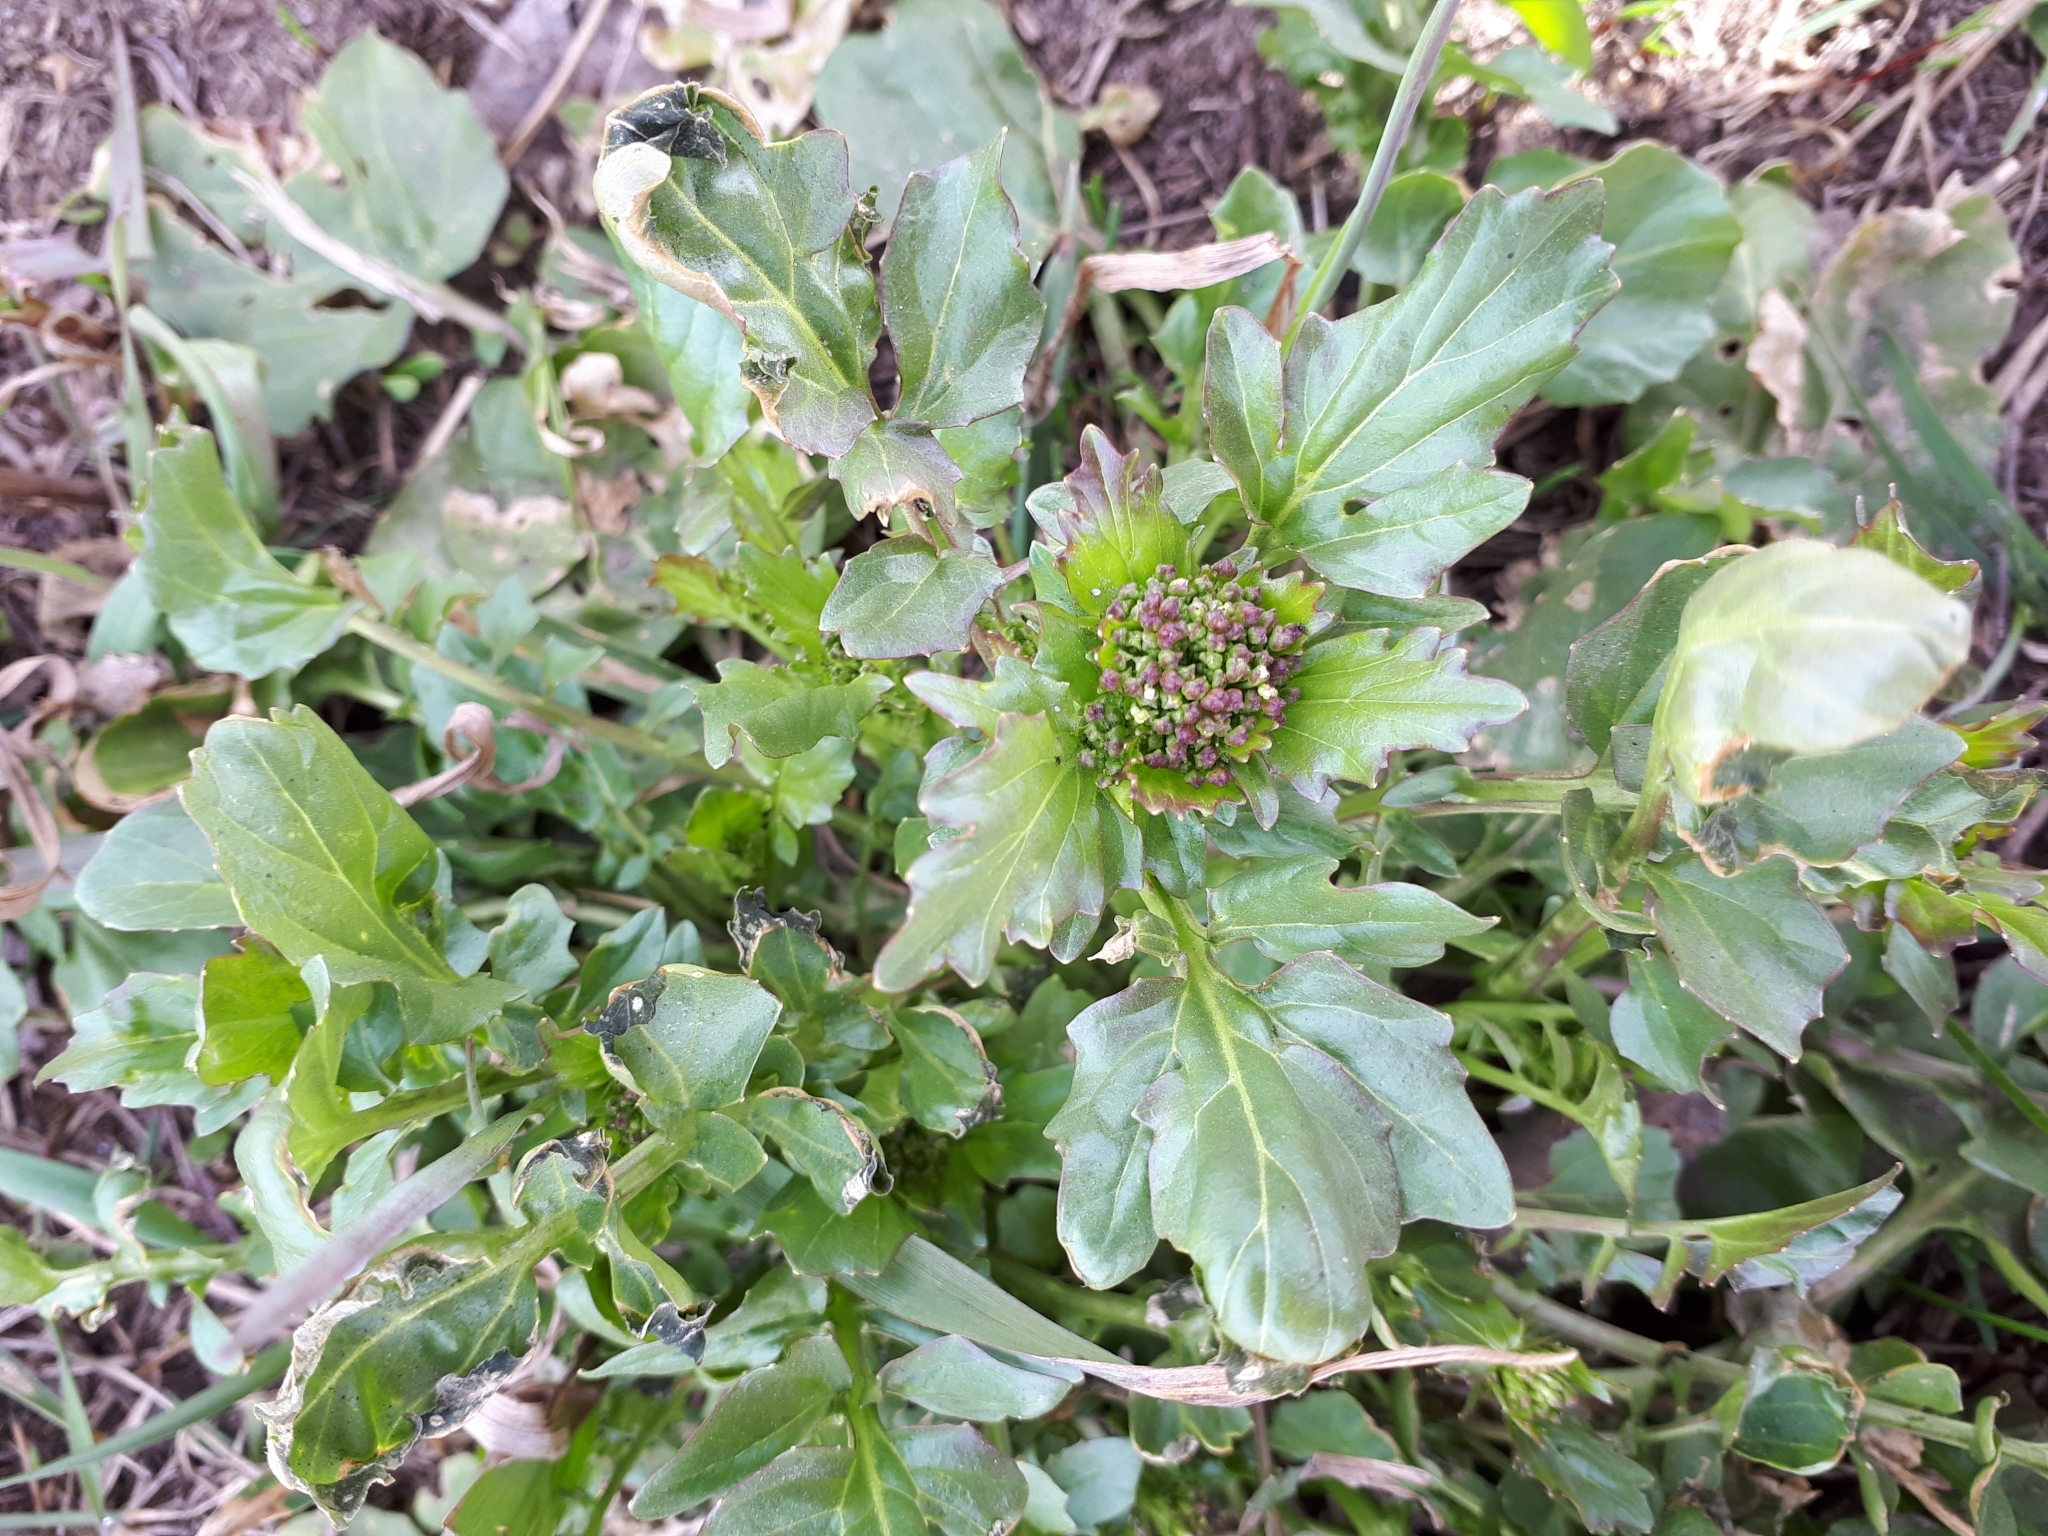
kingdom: Plantae
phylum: Tracheophyta
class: Magnoliopsida
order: Brassicales
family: Brassicaceae
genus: Barbarea
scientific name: Barbarea vulgaris
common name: Cressy-greens
